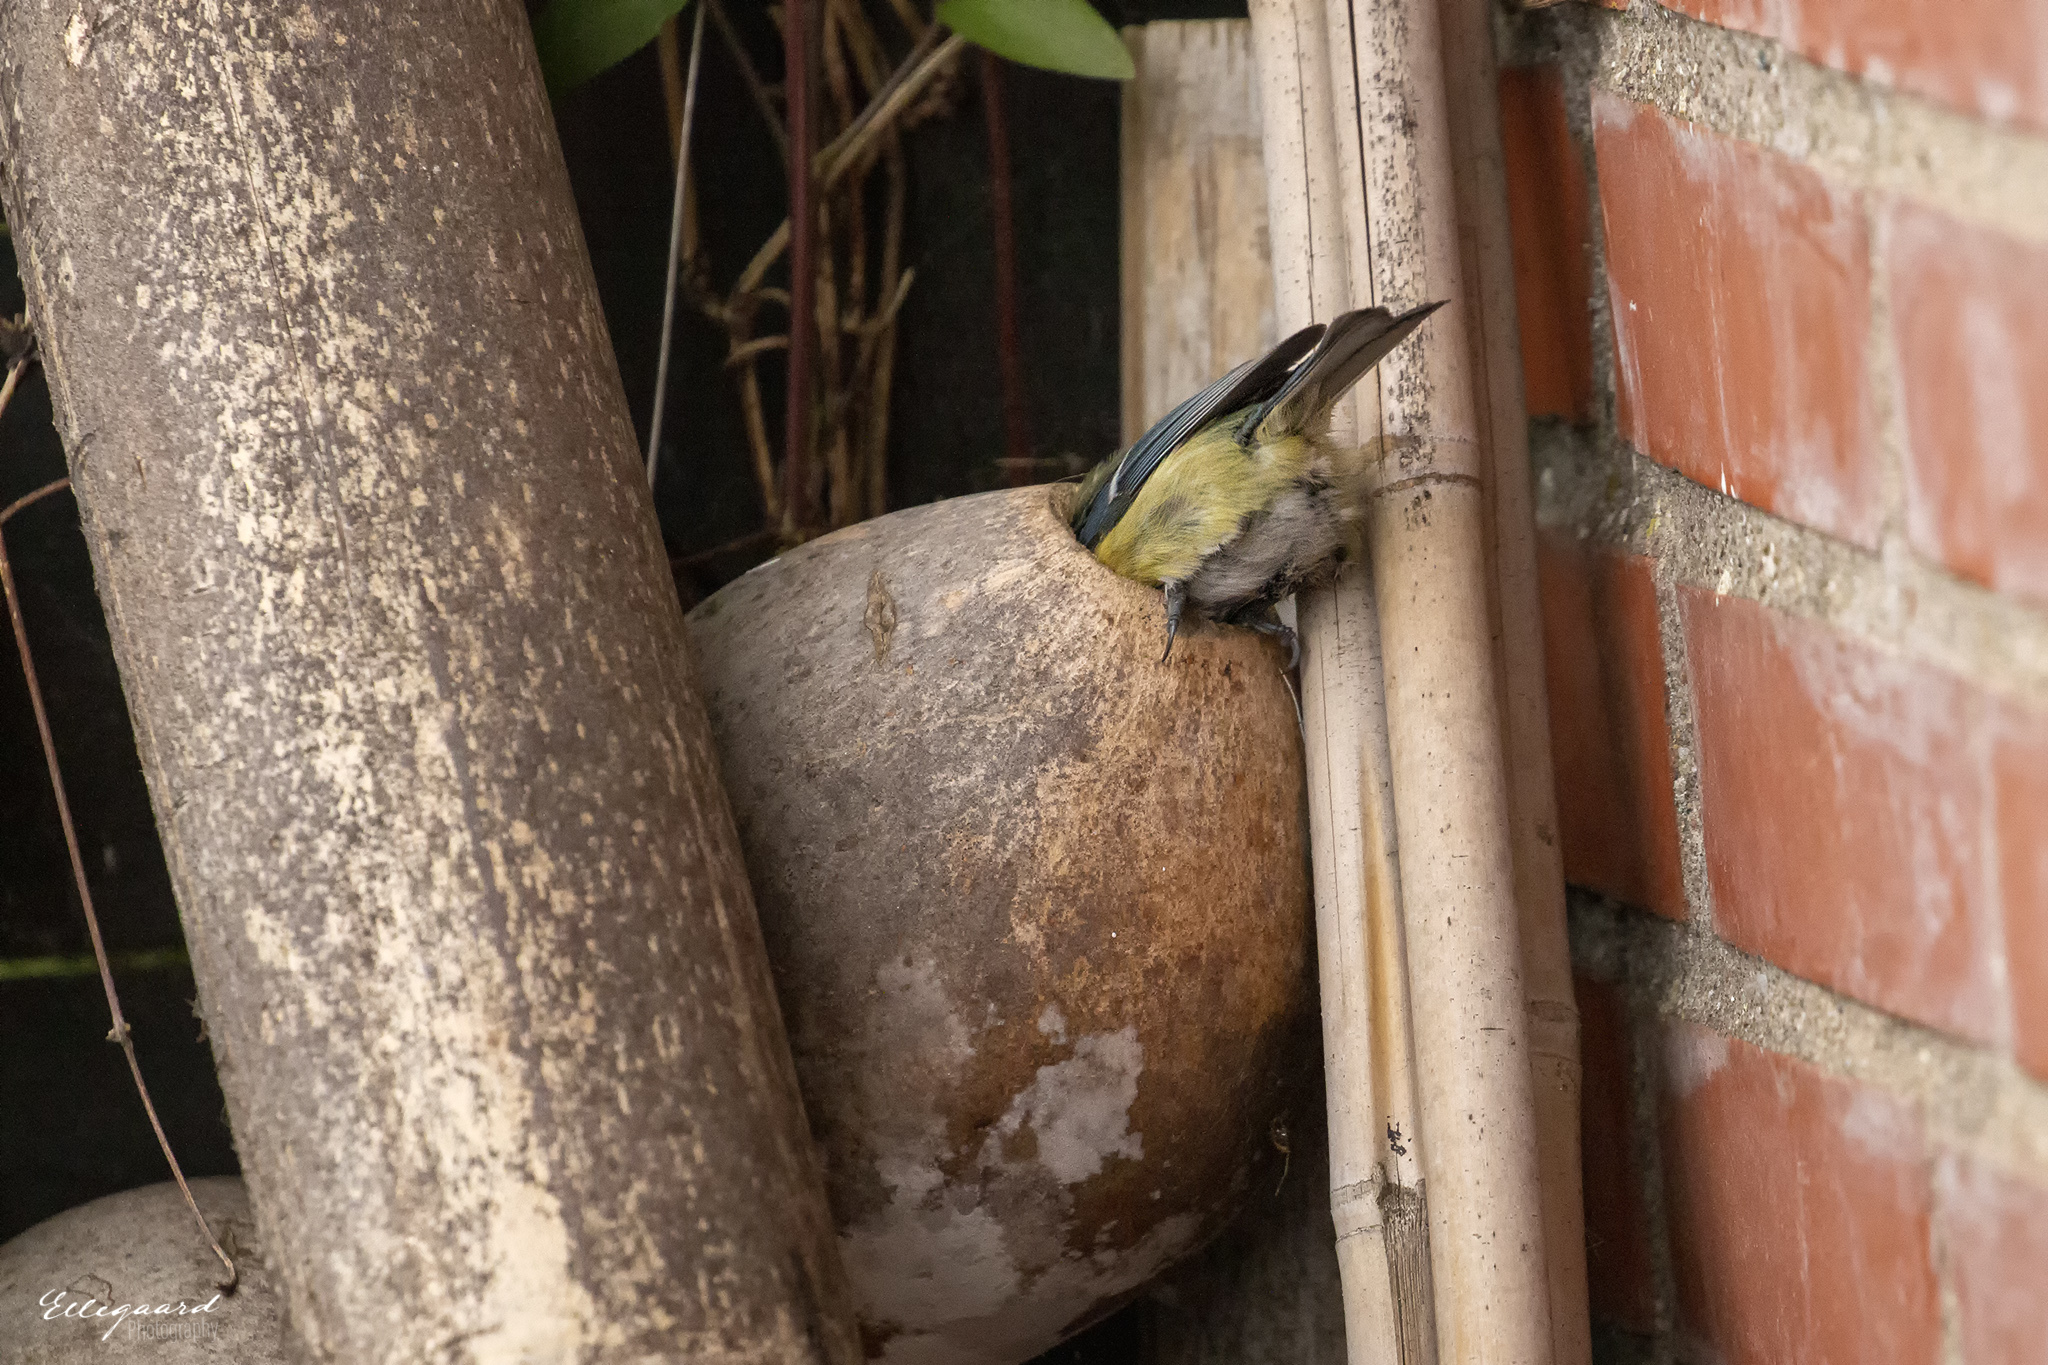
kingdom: Animalia
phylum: Chordata
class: Aves
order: Passeriformes
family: Paridae
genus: Cyanistes
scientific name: Cyanistes caeruleus
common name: Eurasian blue tit
